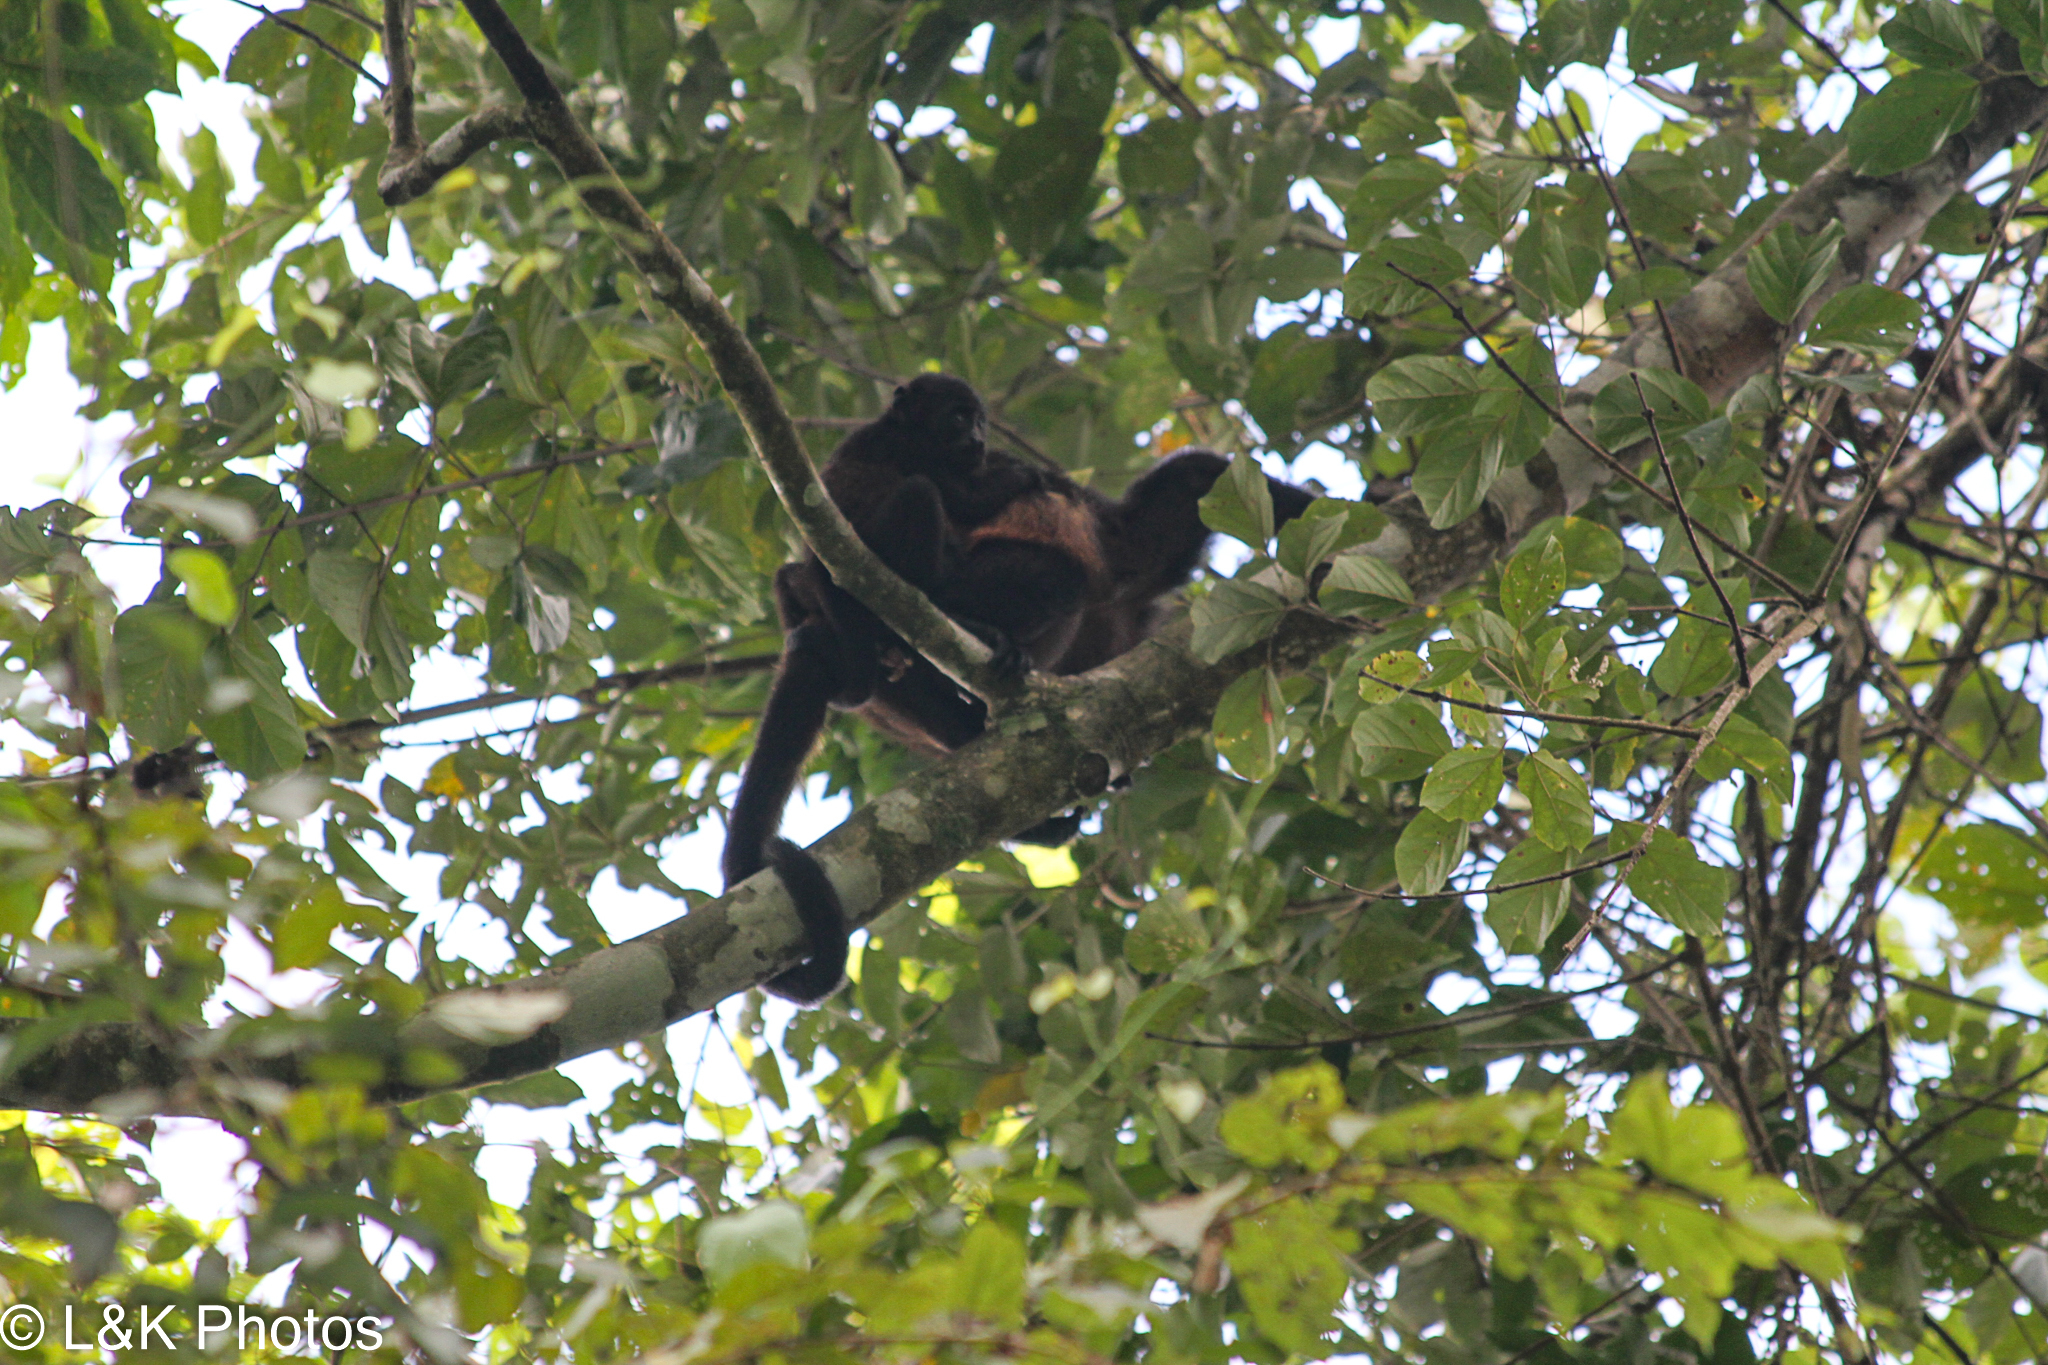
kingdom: Animalia
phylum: Chordata
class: Mammalia
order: Primates
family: Atelidae
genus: Alouatta
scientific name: Alouatta palliata
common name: Mantled howler
